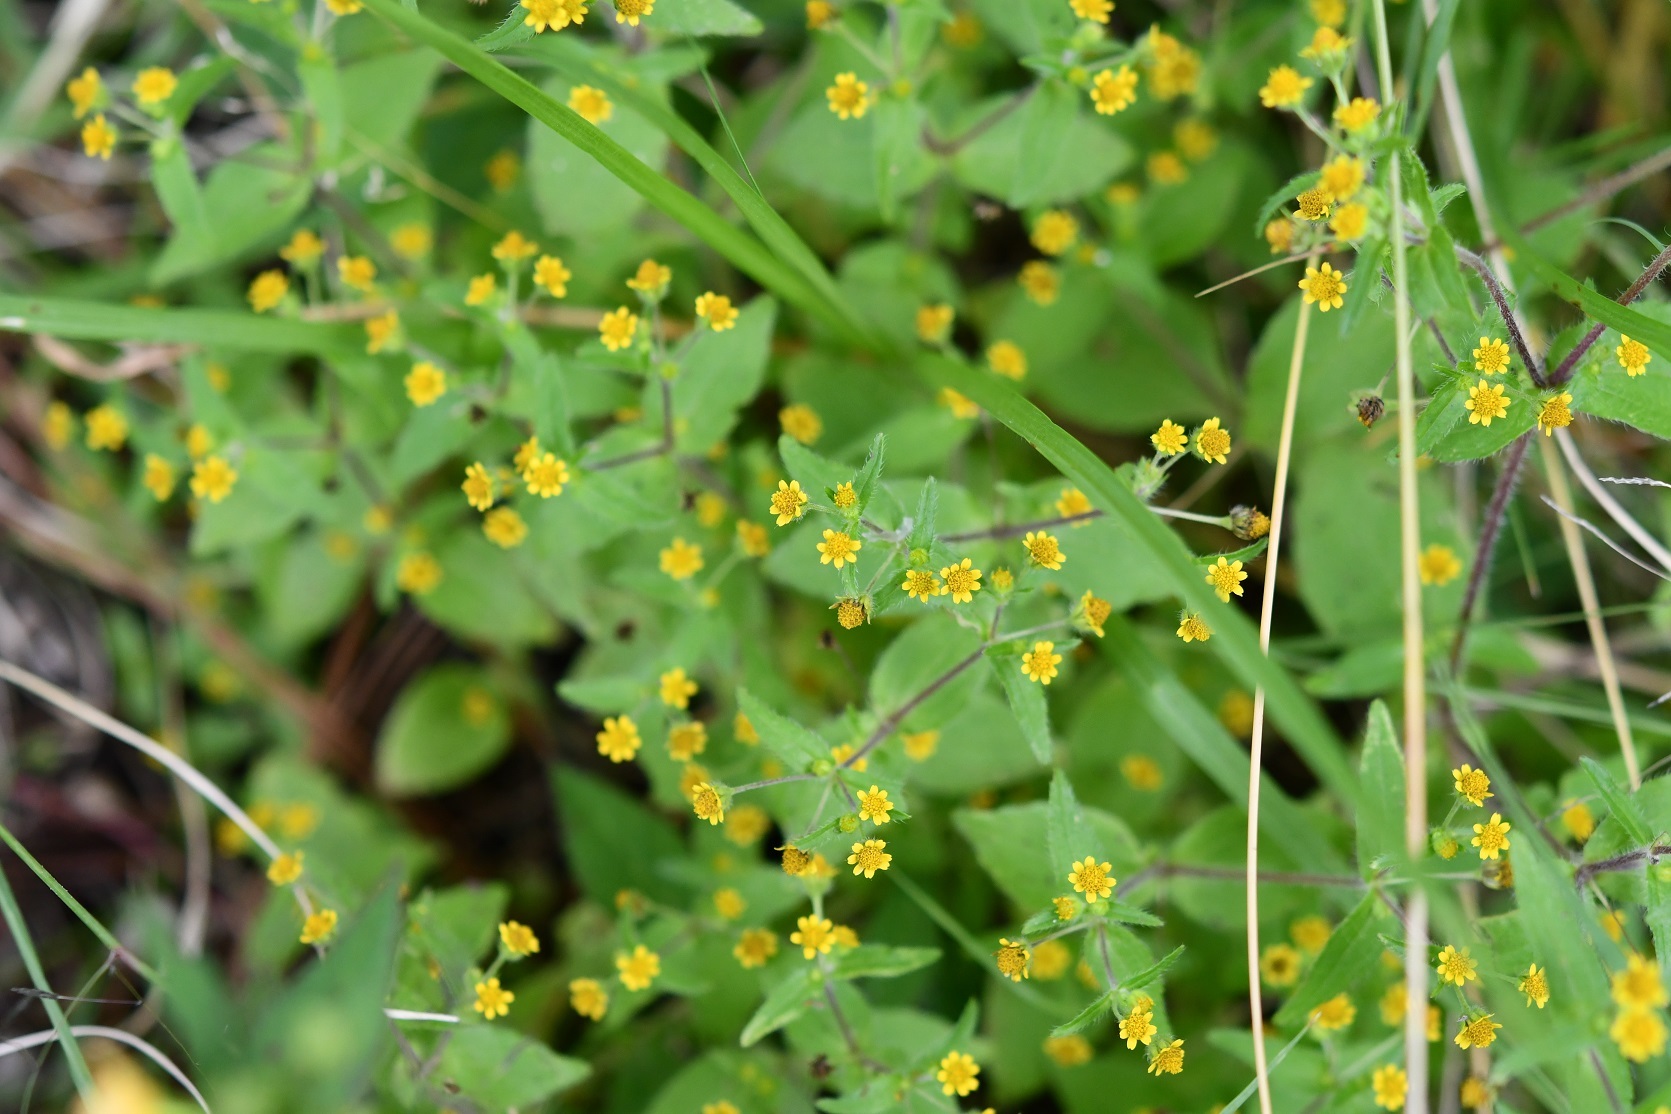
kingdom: Plantae
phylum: Tracheophyta
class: Magnoliopsida
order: Asterales
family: Asteraceae
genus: Jaegeria
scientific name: Jaegeria hirta
